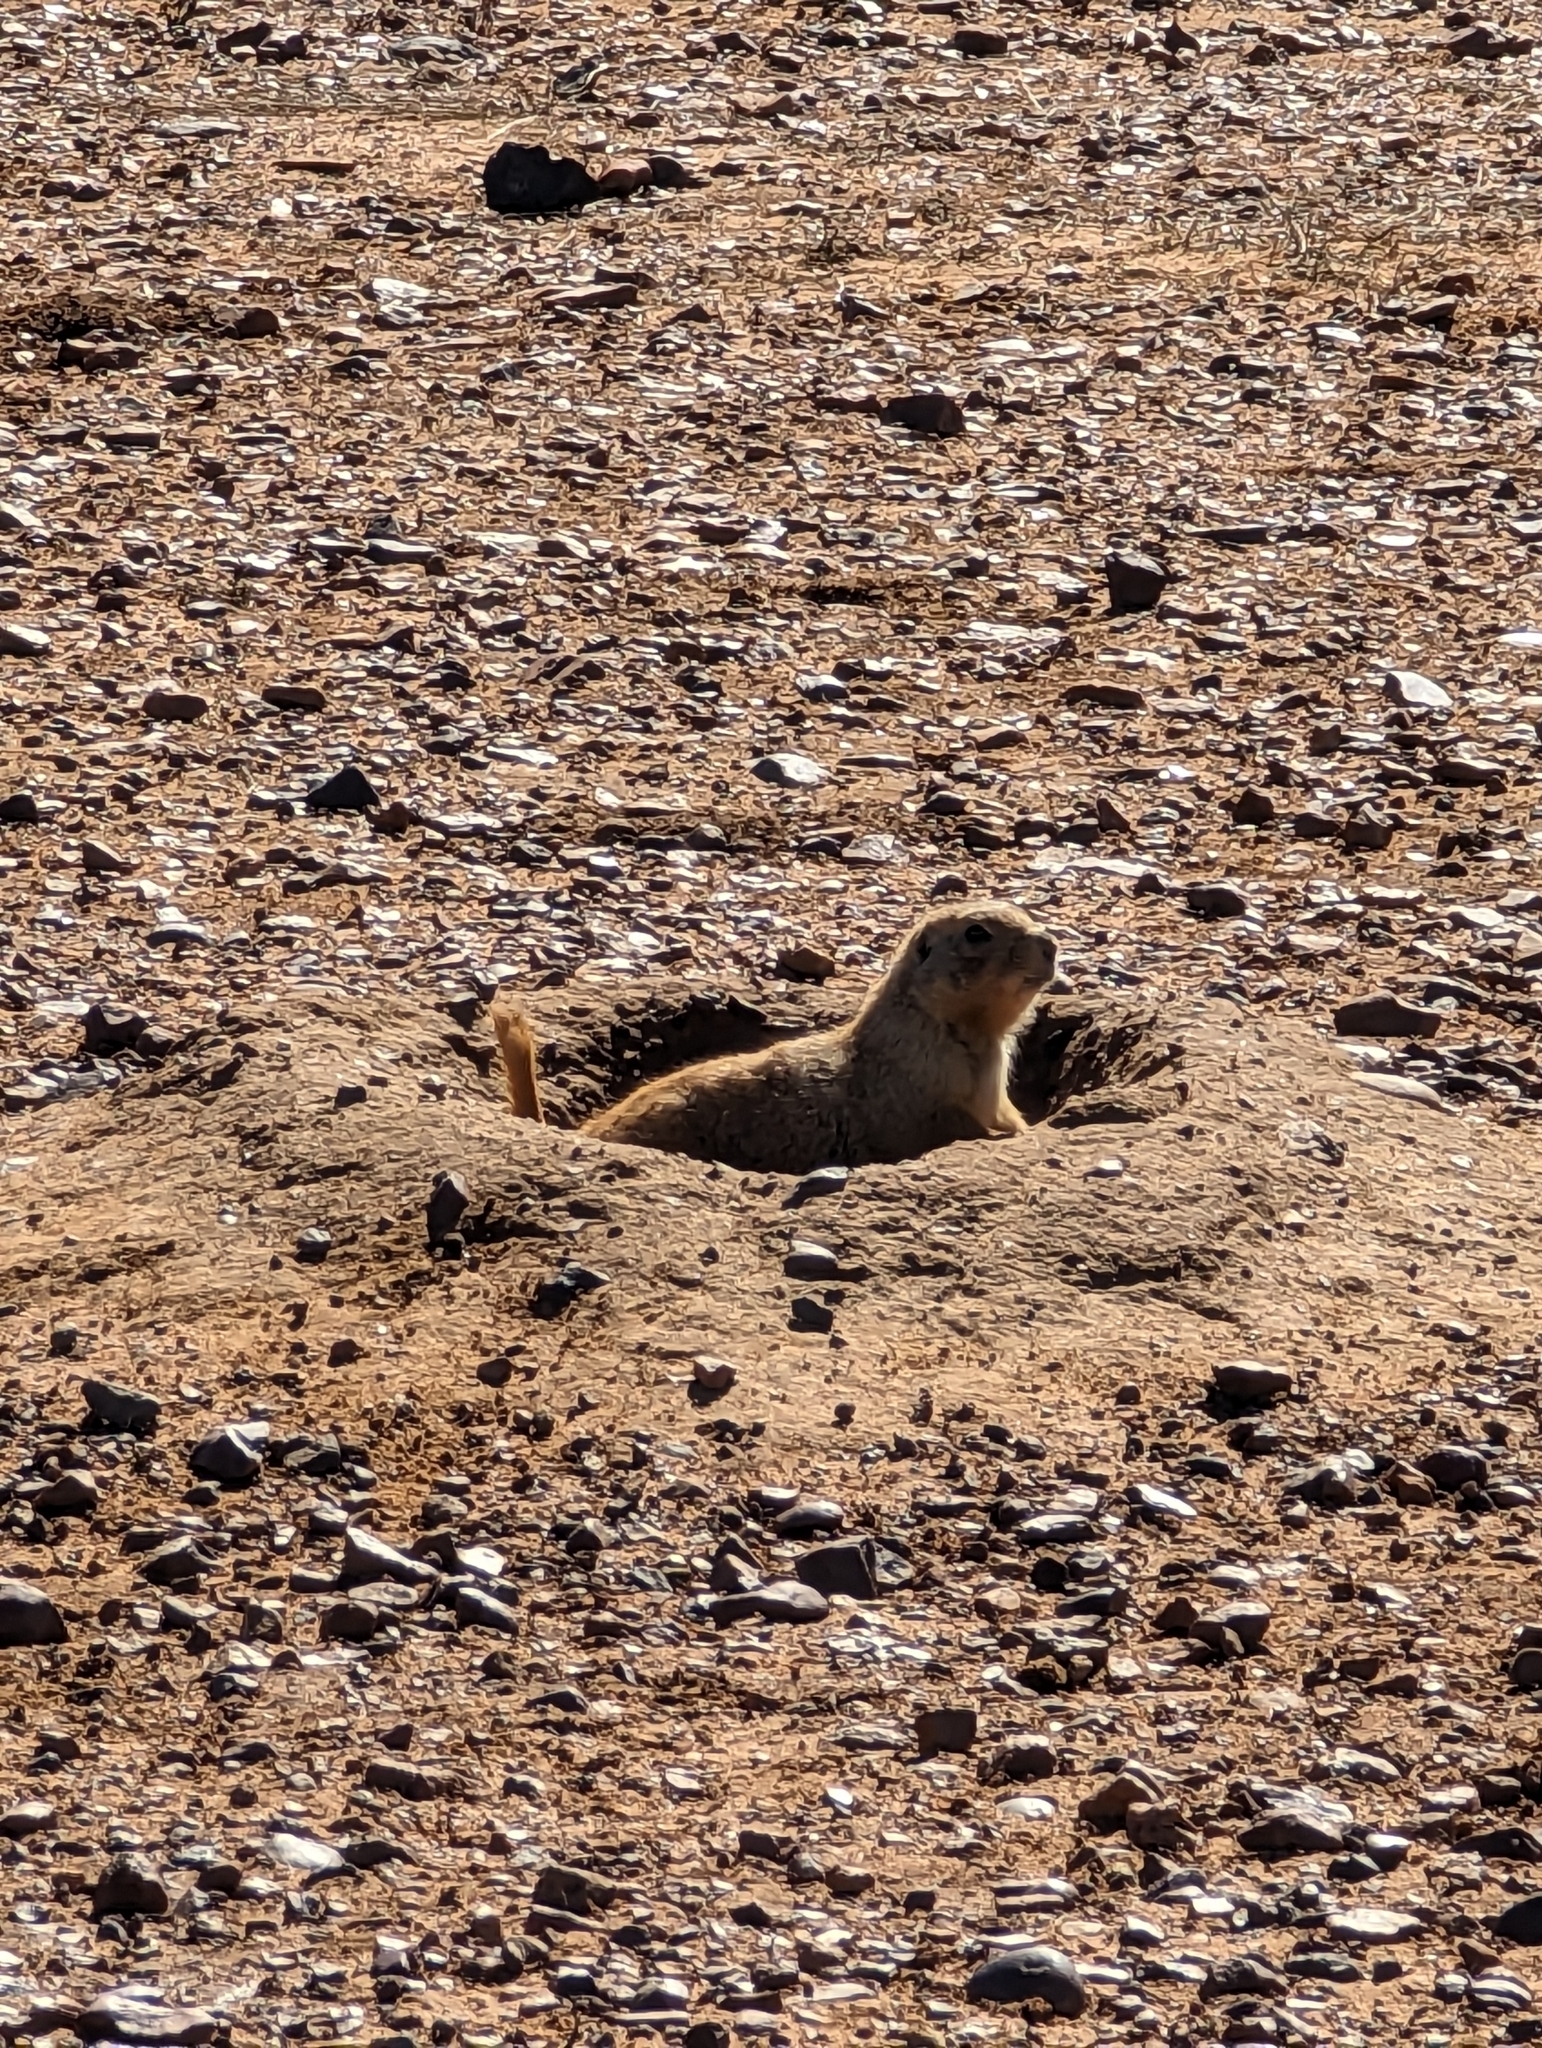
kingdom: Animalia
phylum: Chordata
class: Mammalia
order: Rodentia
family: Sciuridae
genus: Cynomys
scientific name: Cynomys ludovicianus
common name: Black-tailed prairie dog
